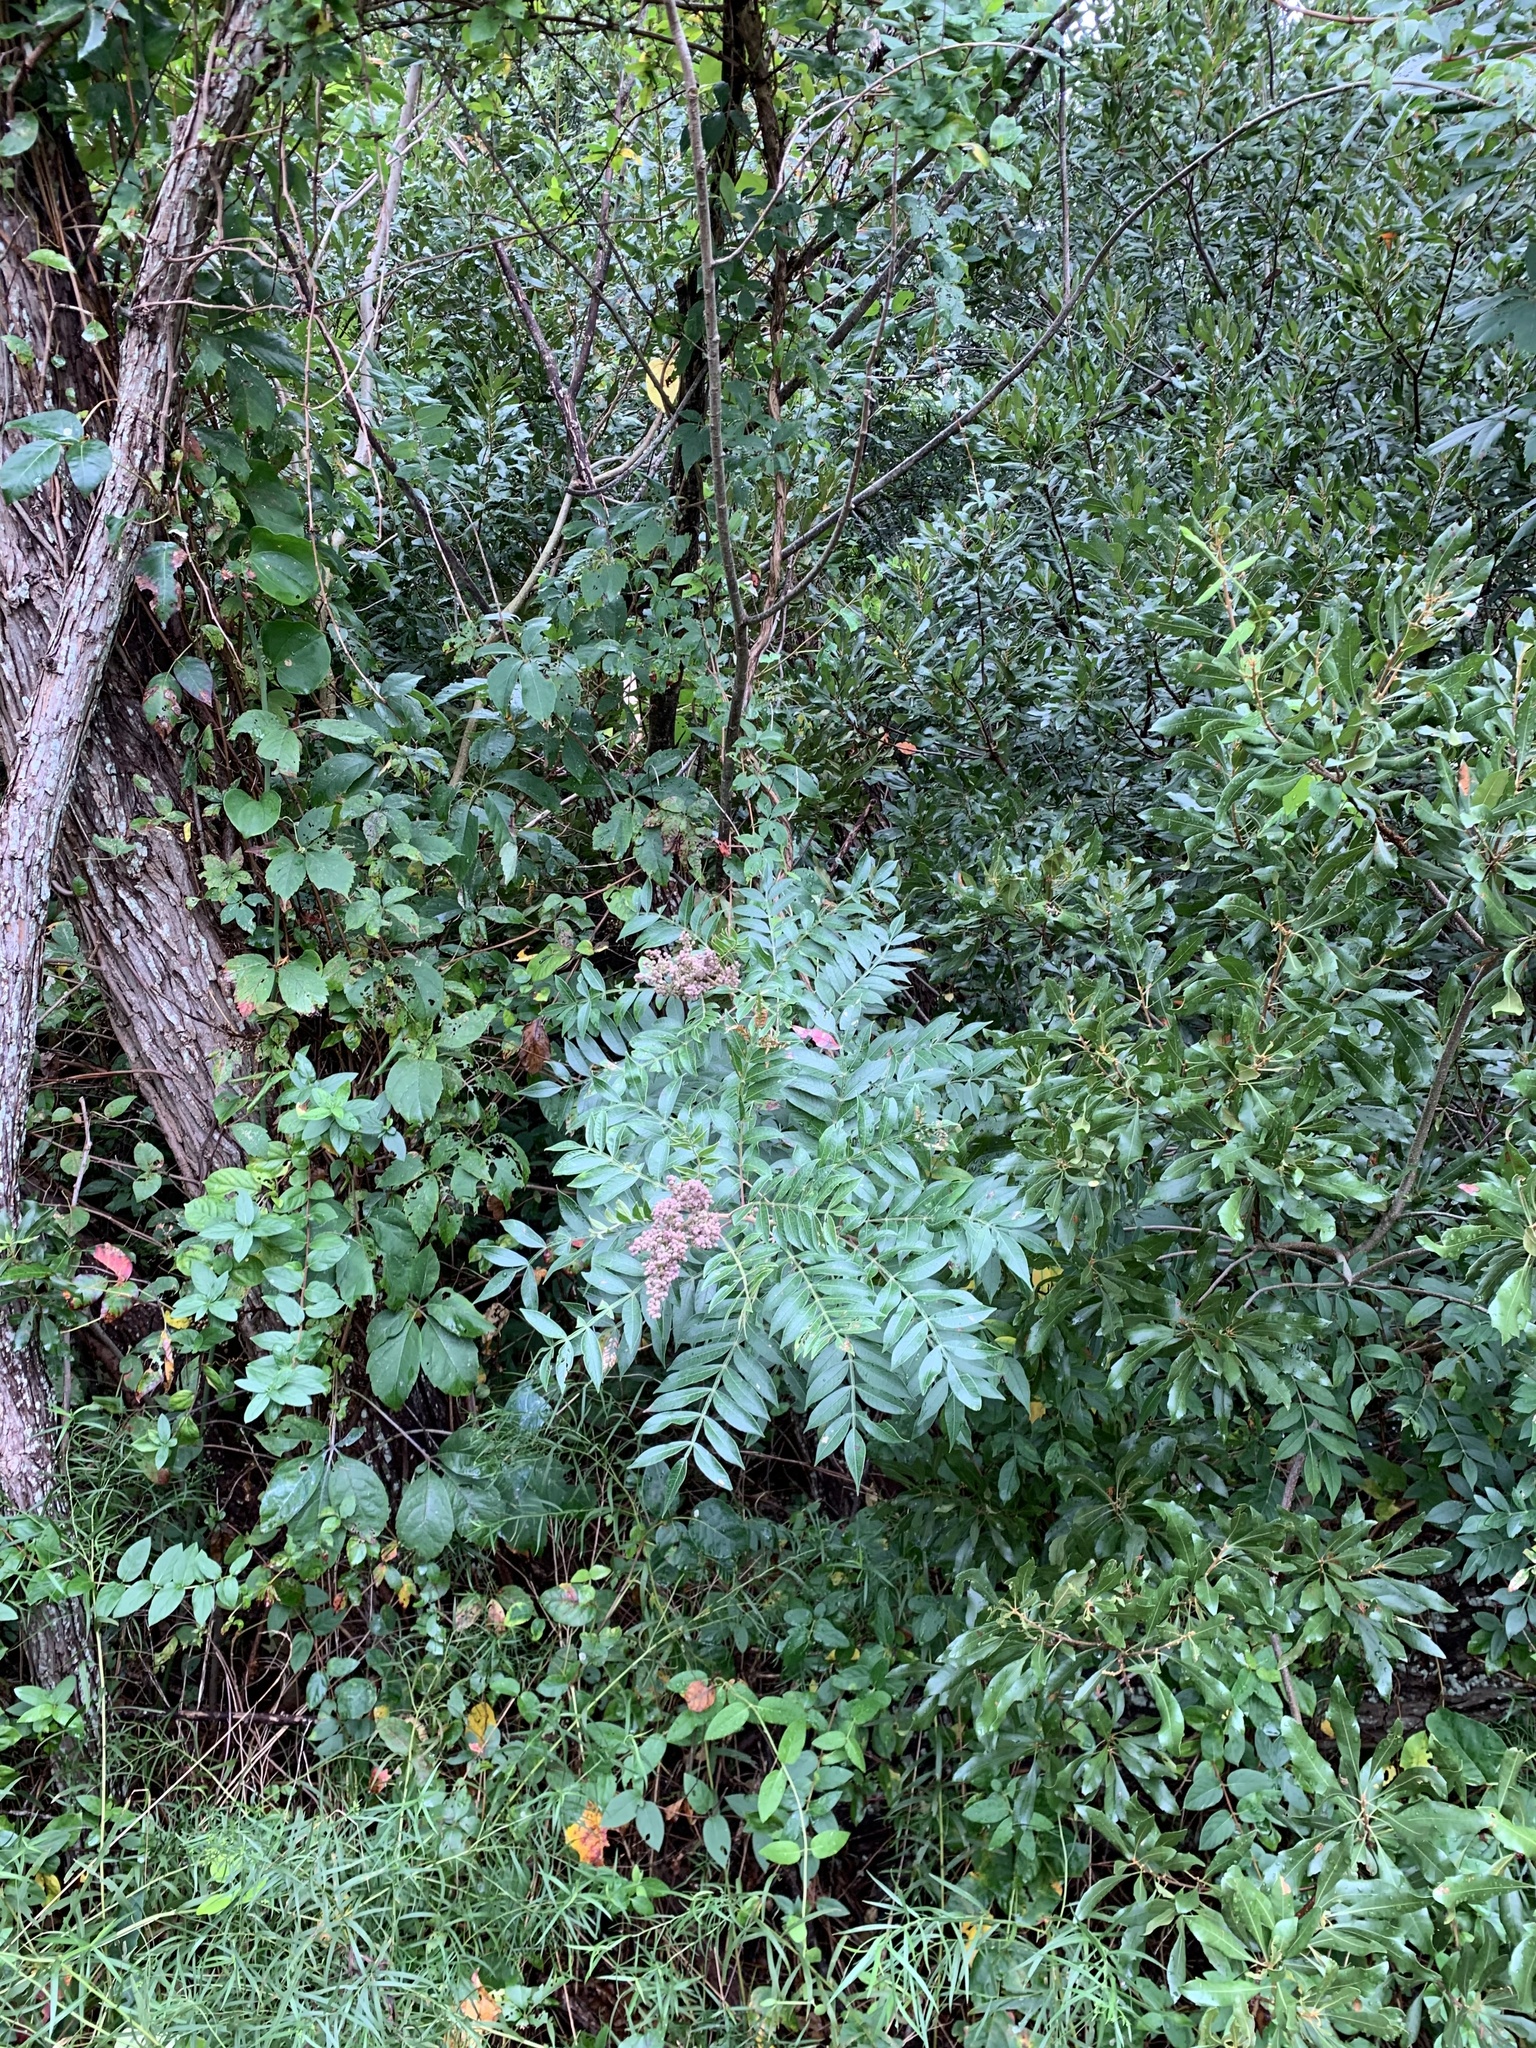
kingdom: Plantae
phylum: Tracheophyta
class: Magnoliopsida
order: Sapindales
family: Anacardiaceae
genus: Rhus
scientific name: Rhus copallina
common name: Shining sumac
